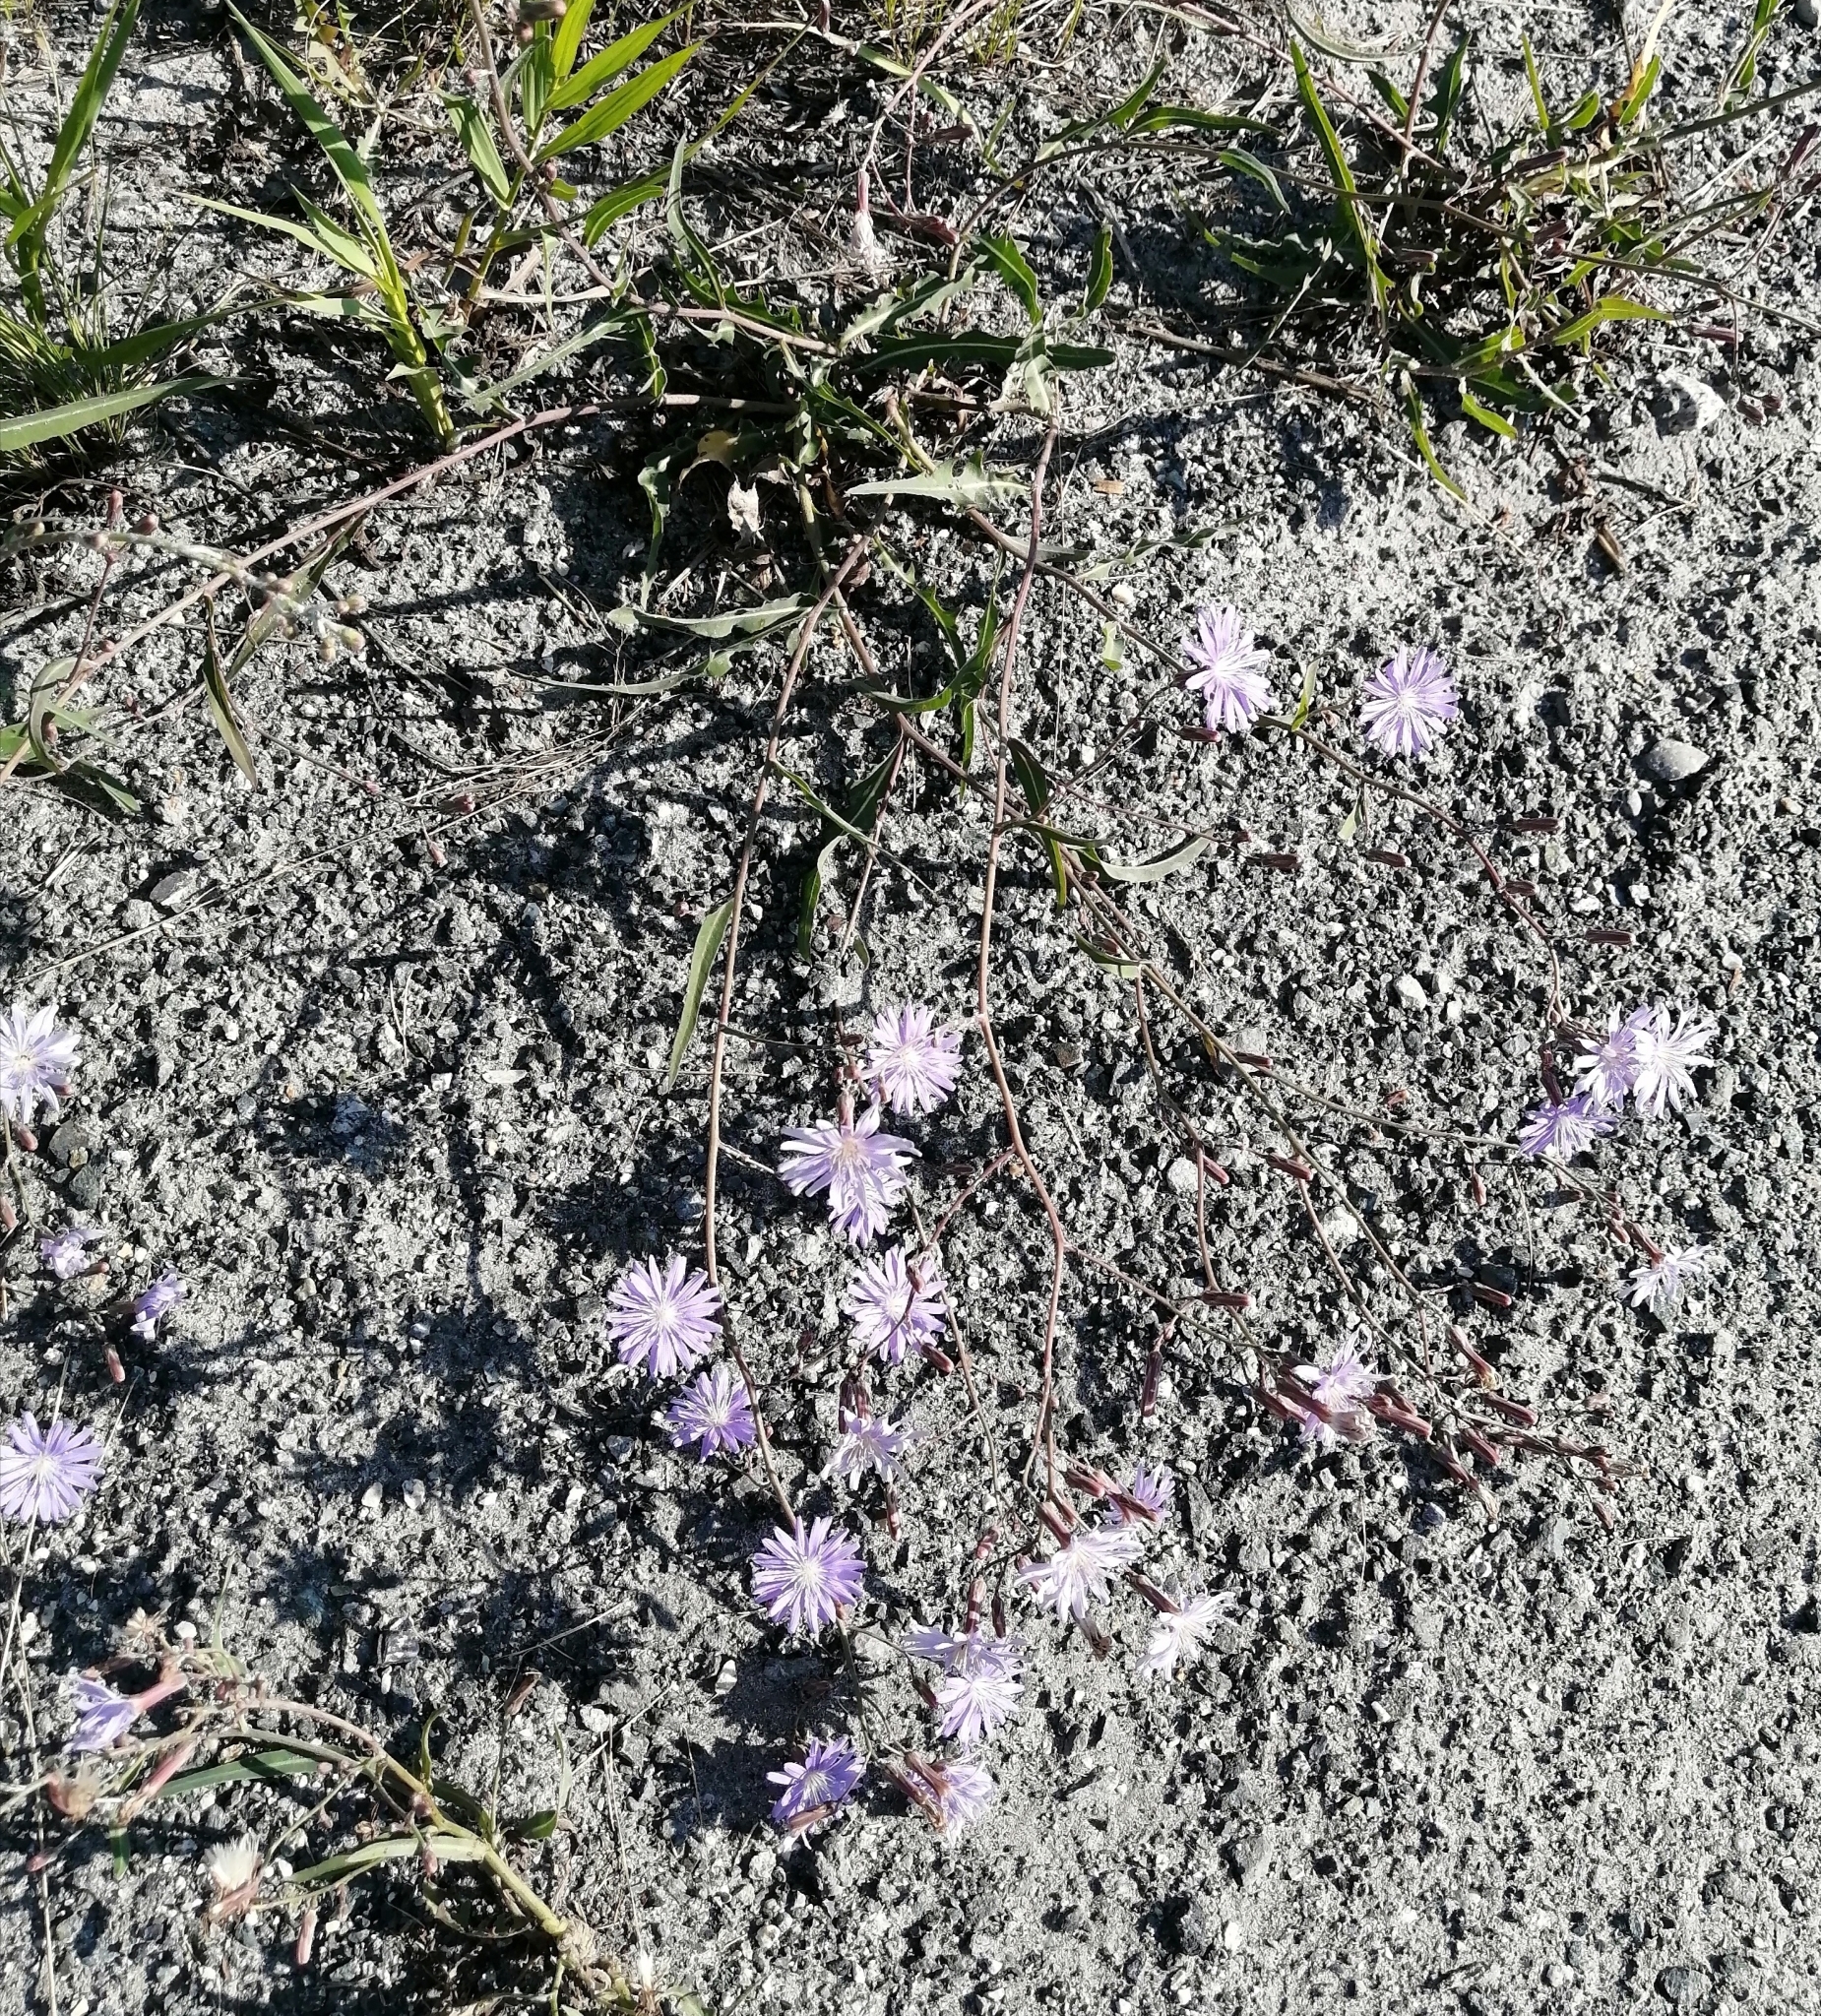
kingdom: Plantae
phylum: Tracheophyta
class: Magnoliopsida
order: Asterales
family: Asteraceae
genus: Lactuca
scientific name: Lactuca tatarica
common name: Blue lettuce
